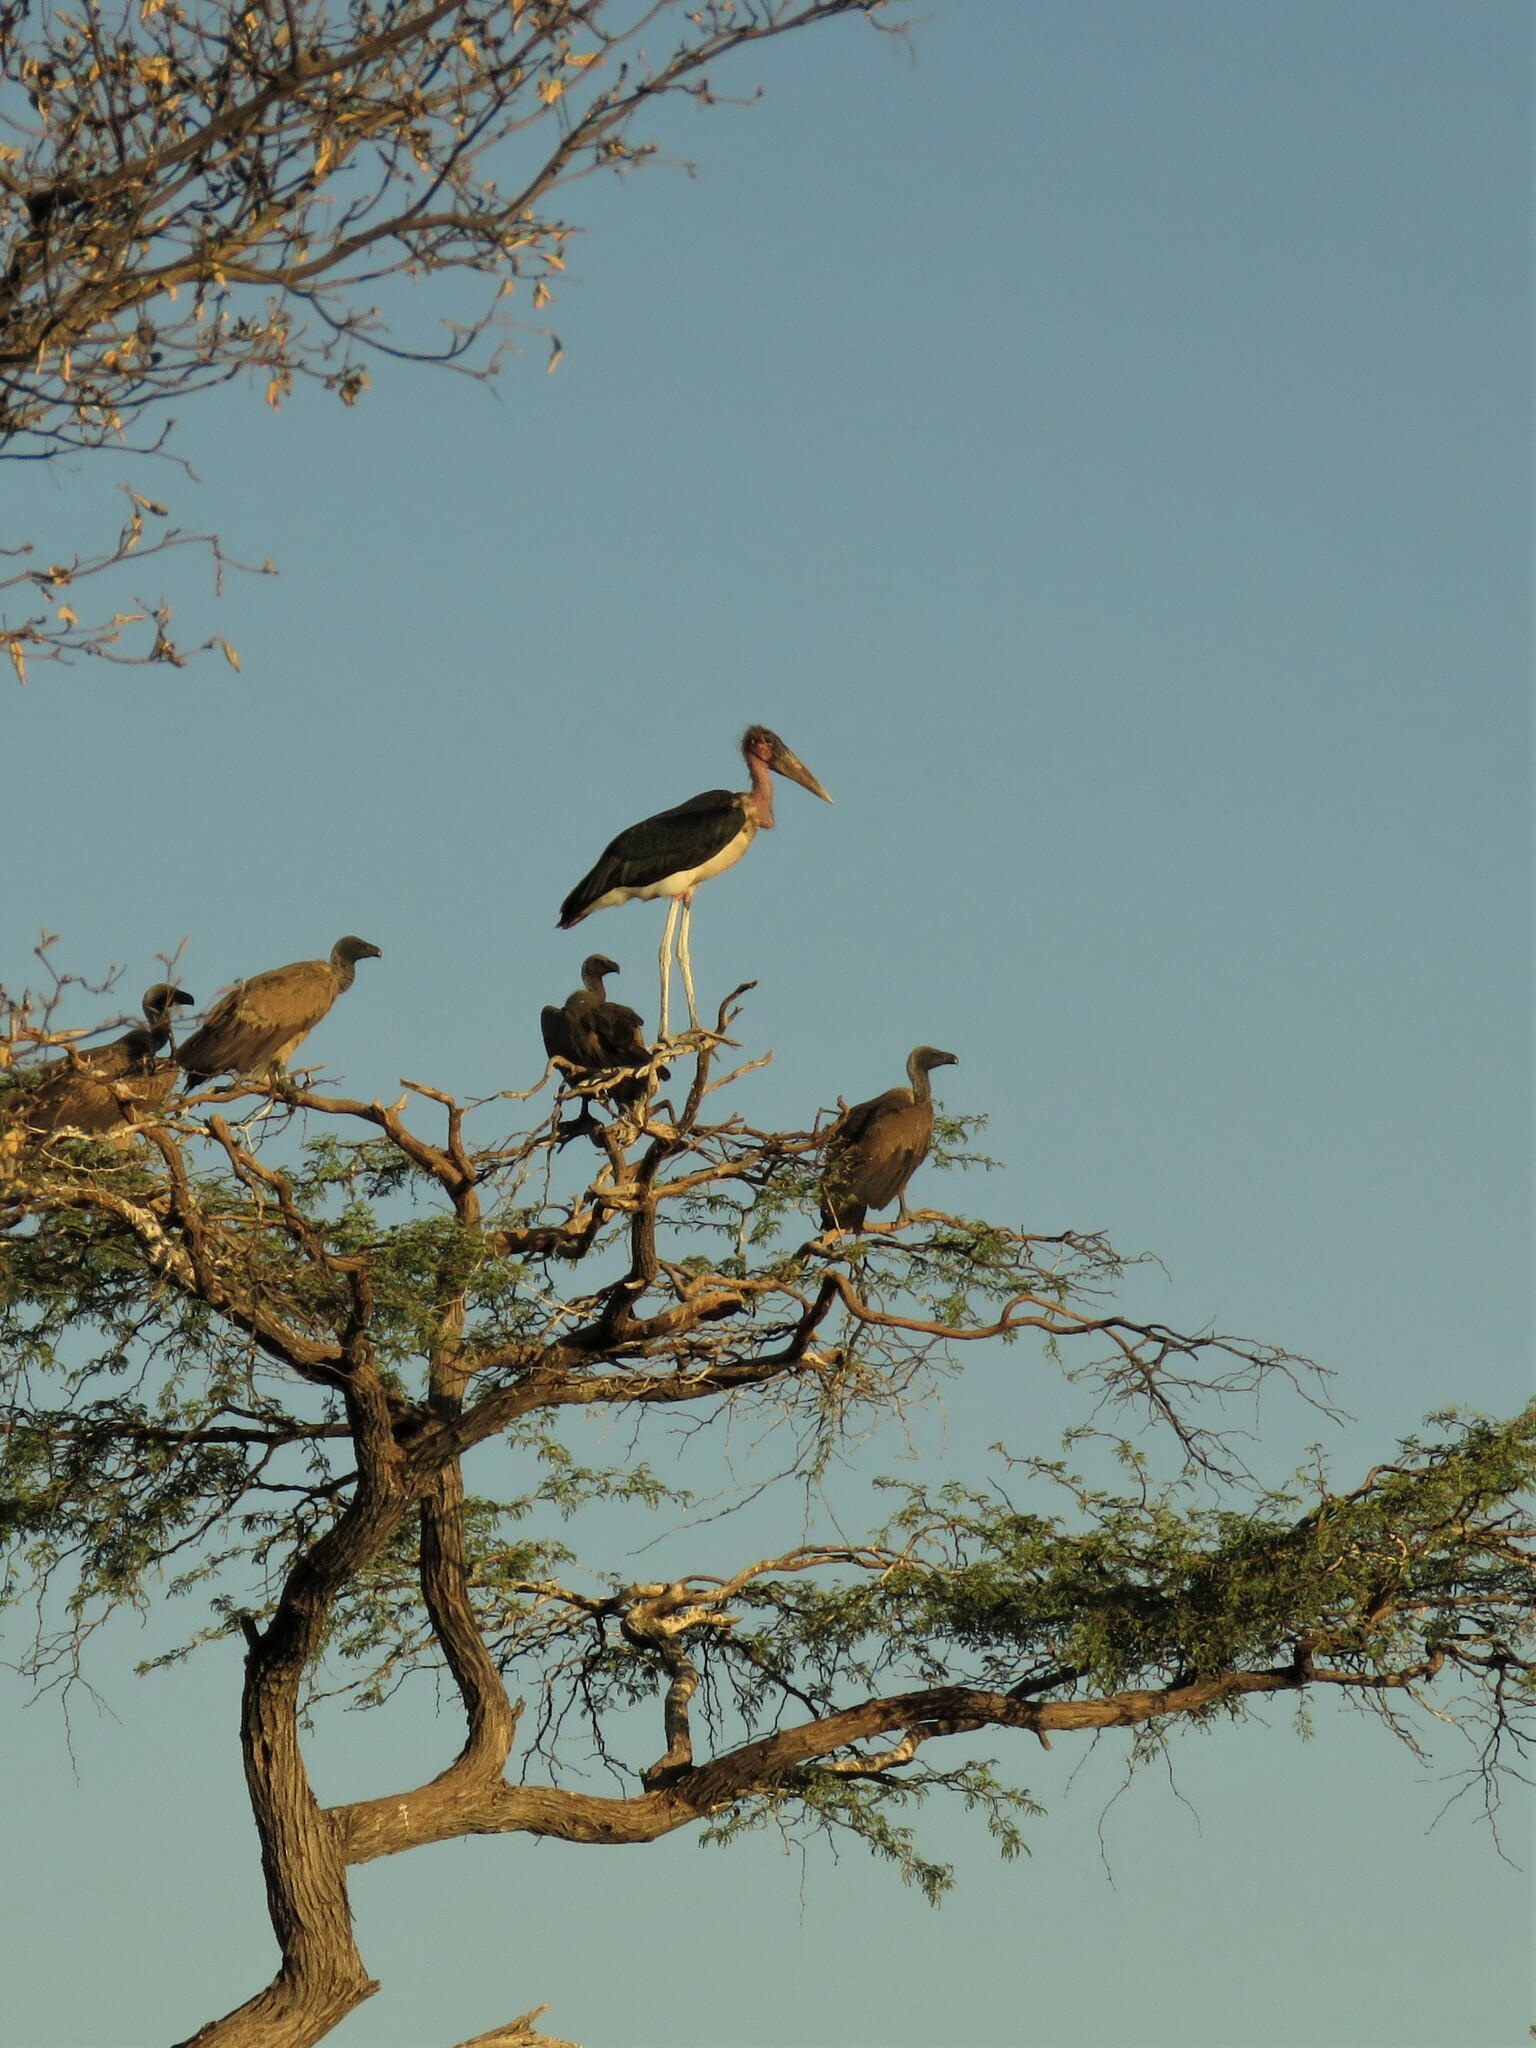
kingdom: Animalia
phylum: Chordata
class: Aves
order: Ciconiiformes
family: Ciconiidae
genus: Leptoptilos
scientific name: Leptoptilos crumenifer
